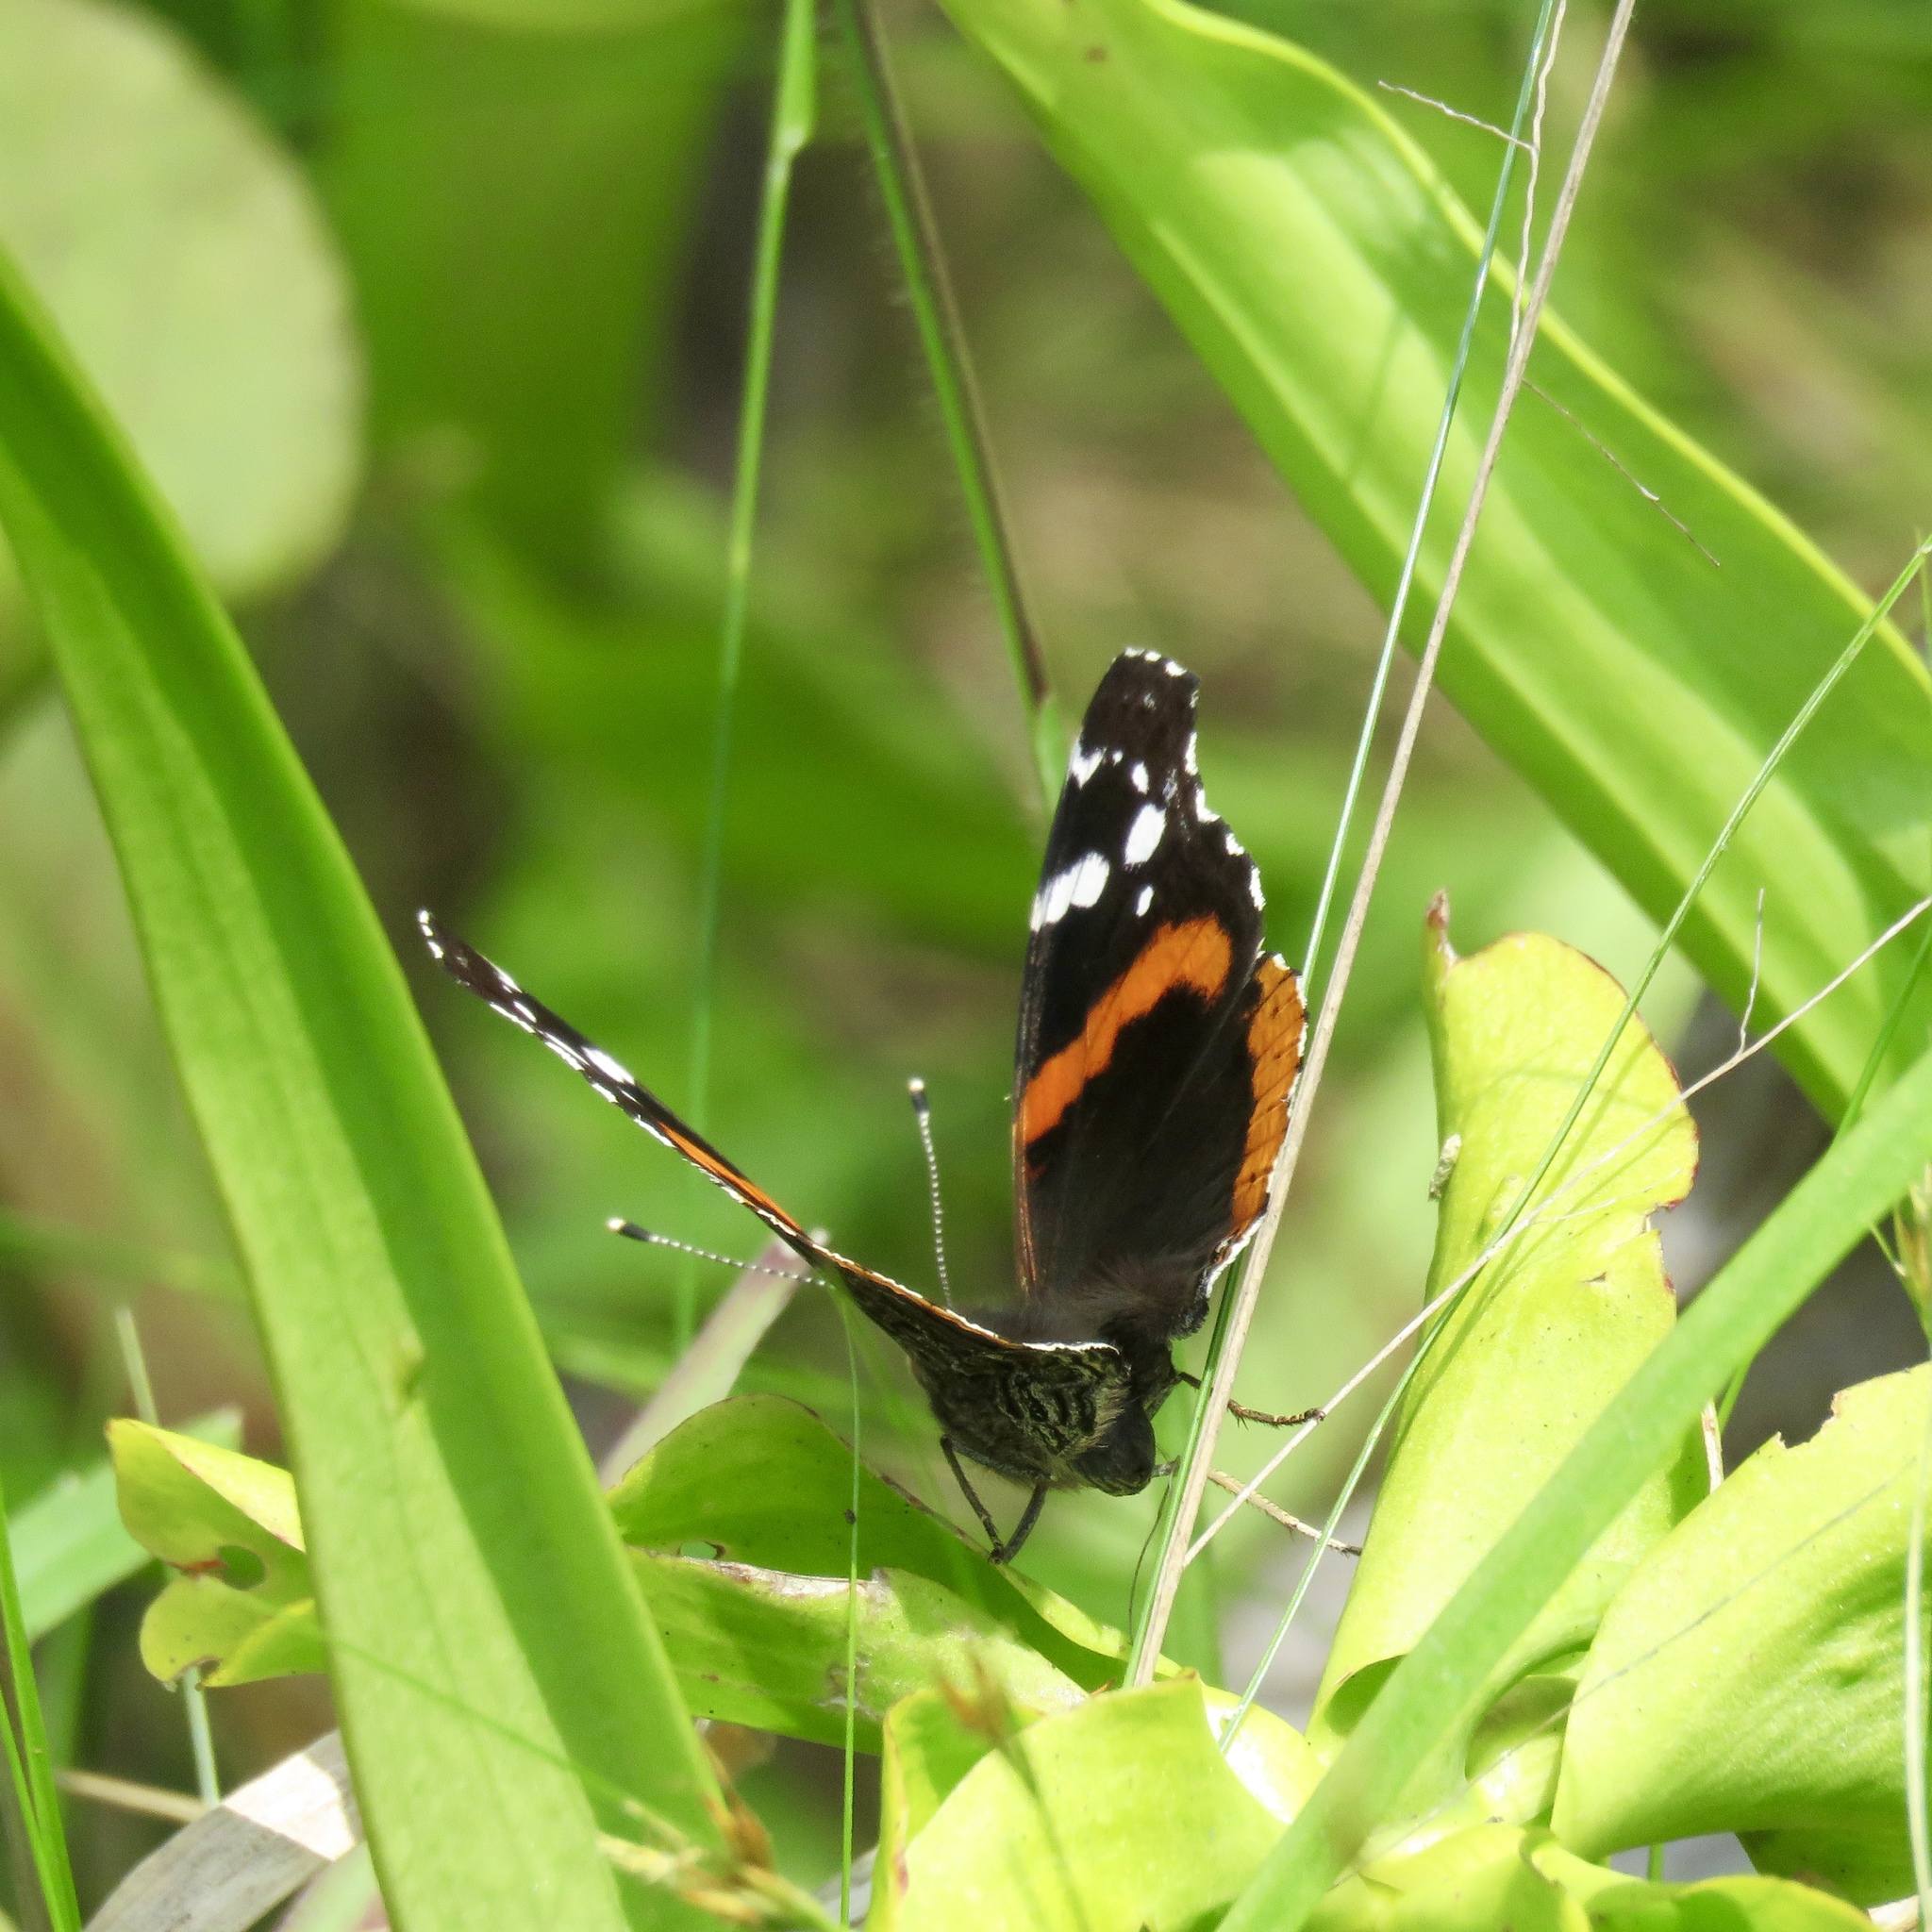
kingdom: Animalia
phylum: Arthropoda
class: Insecta
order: Lepidoptera
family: Nymphalidae
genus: Vanessa
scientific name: Vanessa atalanta
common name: Red admiral
